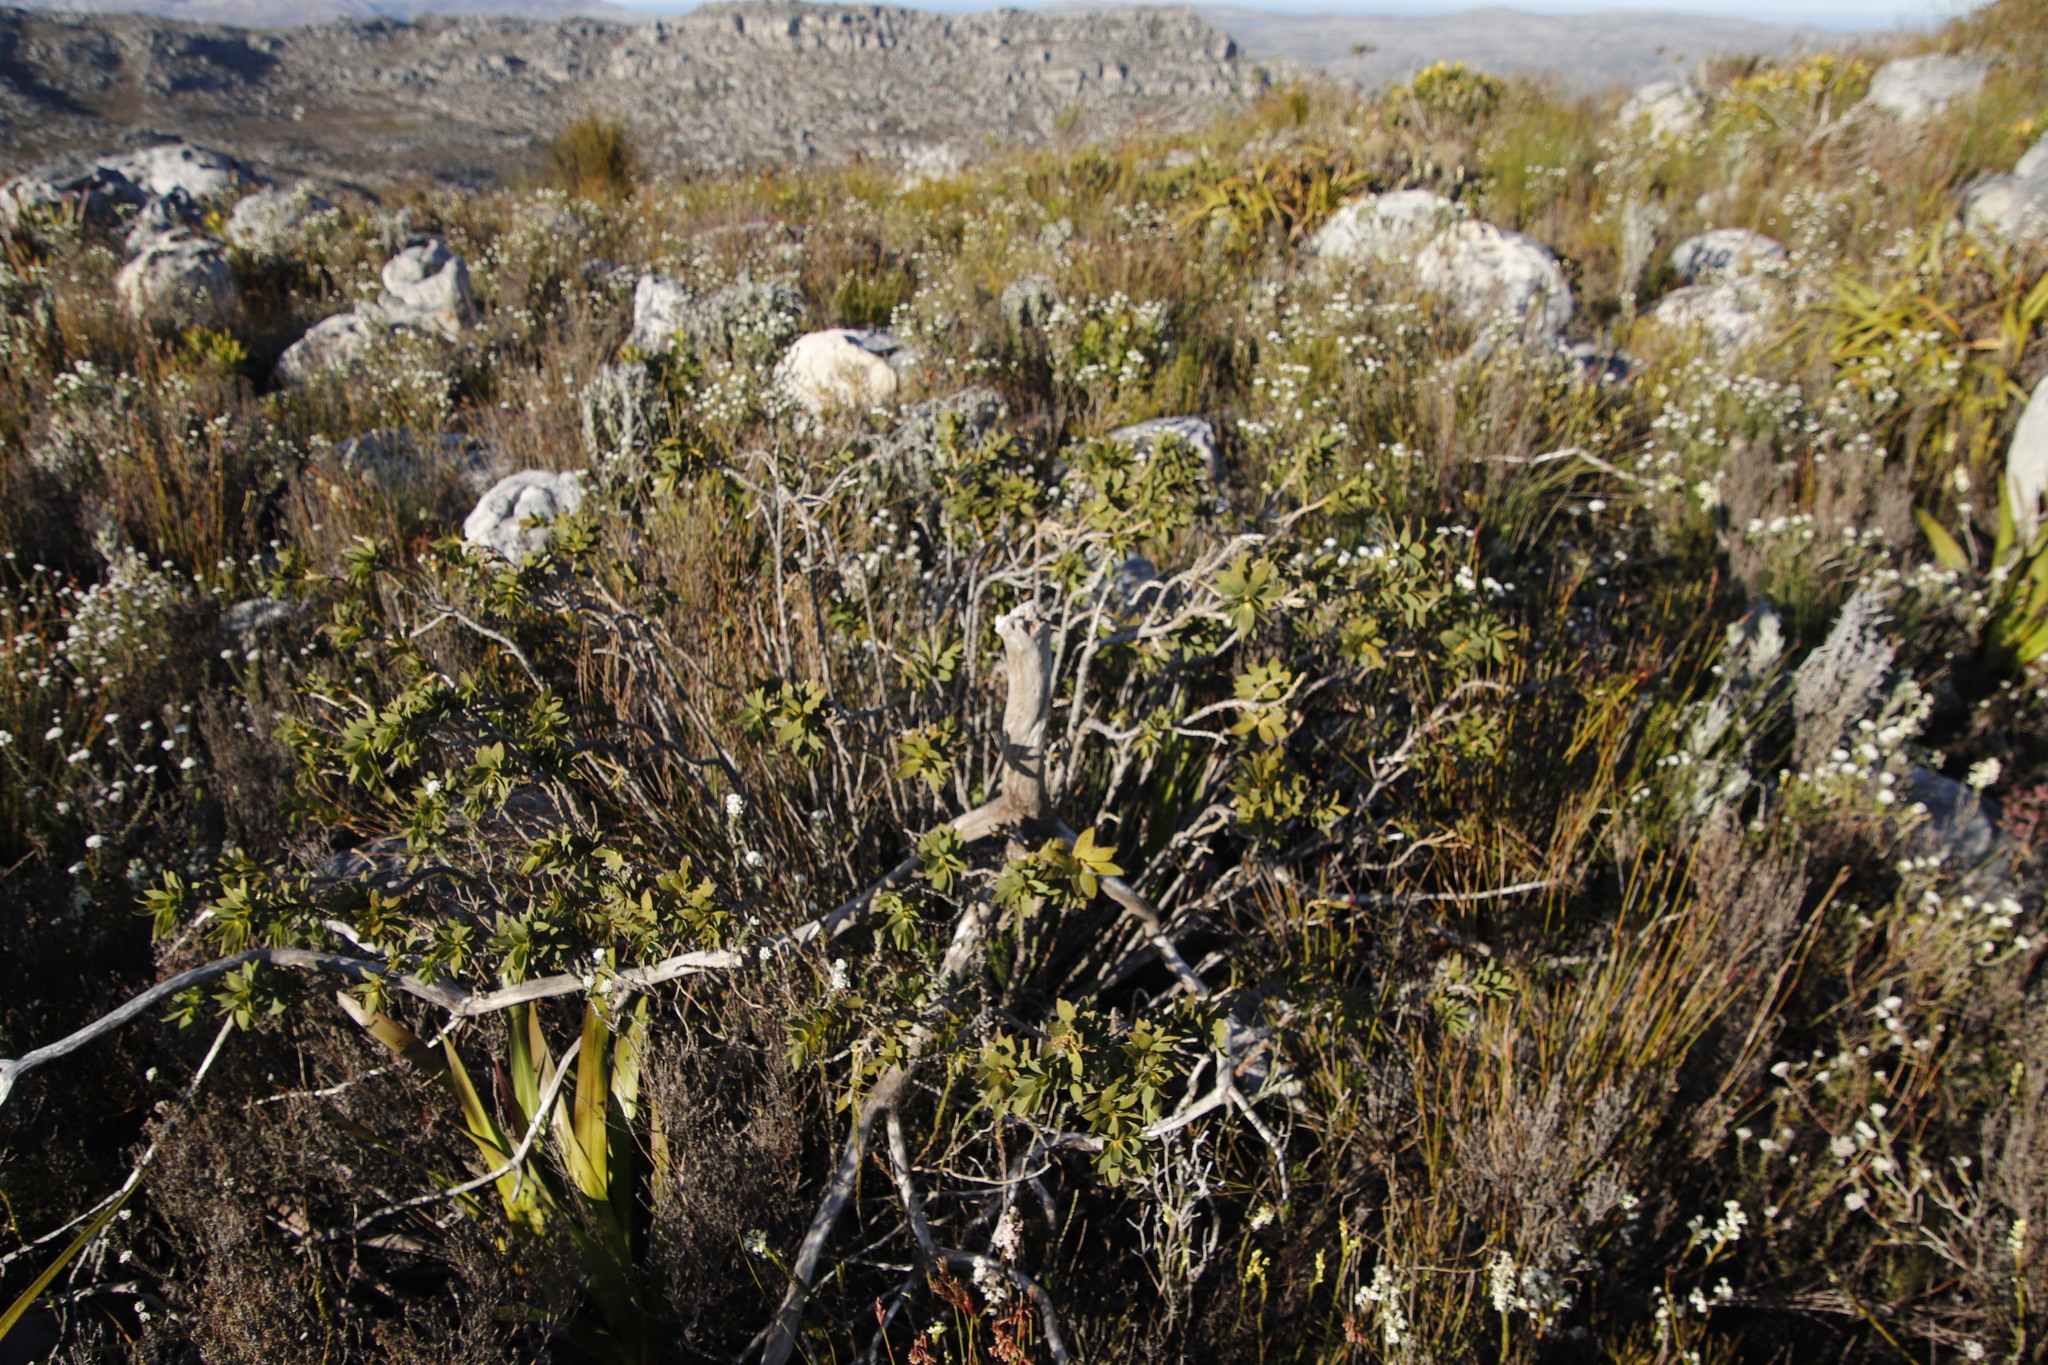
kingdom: Plantae
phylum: Tracheophyta
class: Magnoliopsida
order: Fabales
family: Fabaceae
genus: Liparia
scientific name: Liparia splendens
